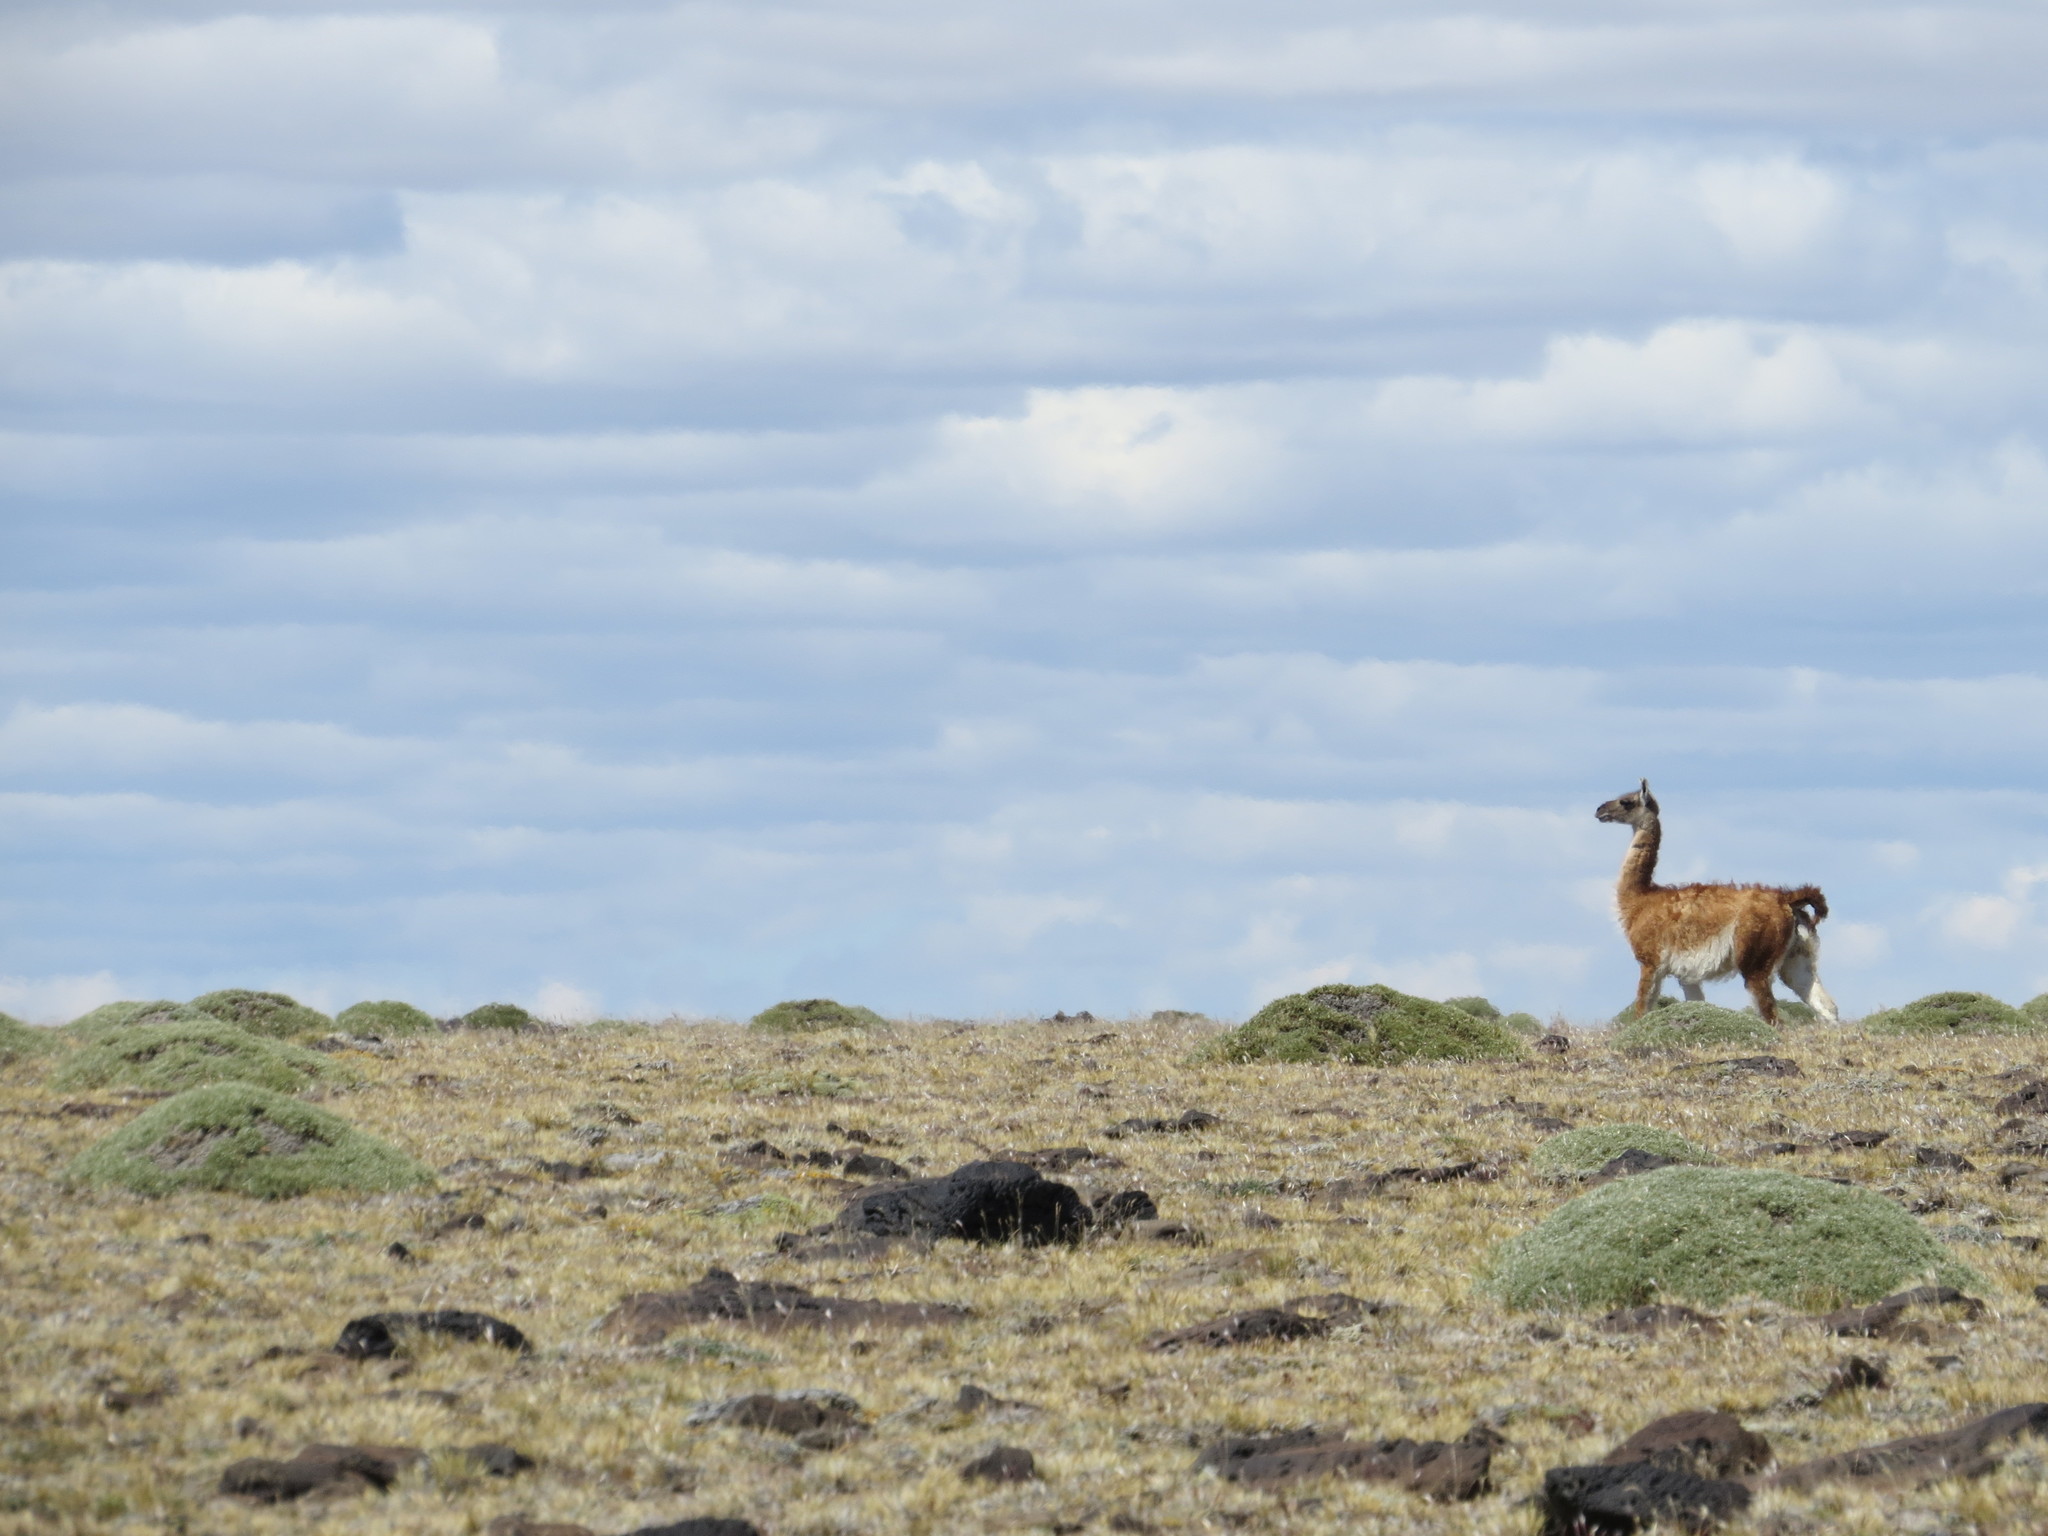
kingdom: Animalia
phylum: Chordata
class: Mammalia
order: Artiodactyla
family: Camelidae
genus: Lama
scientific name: Lama glama
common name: Llama
